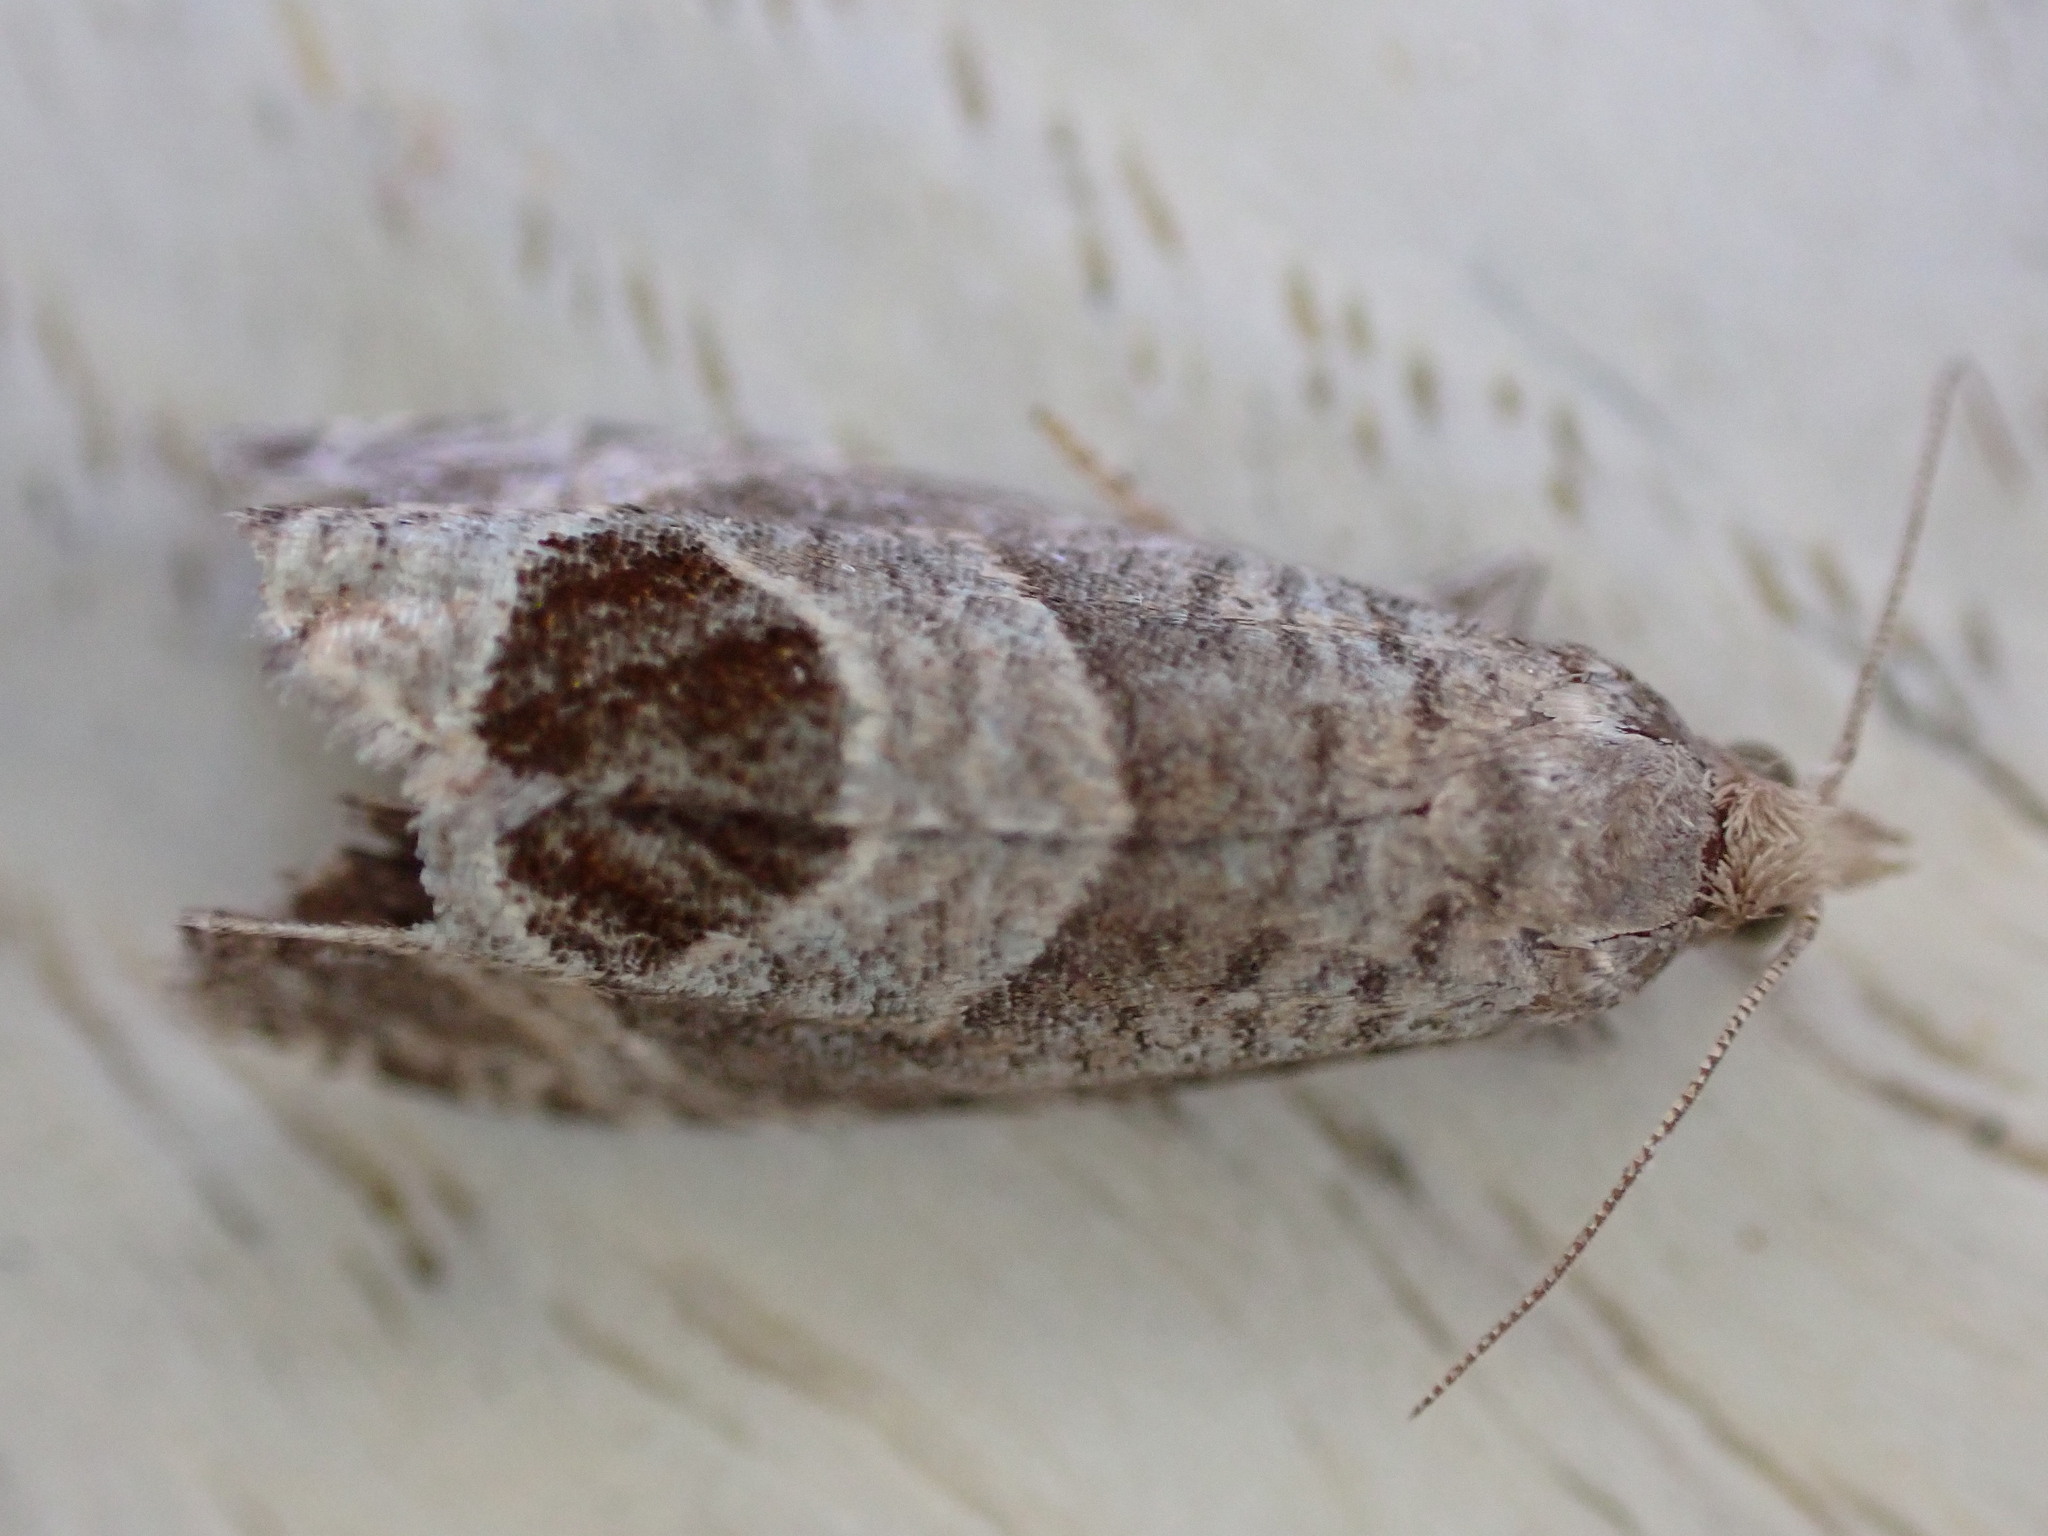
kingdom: Animalia
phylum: Arthropoda
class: Insecta
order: Lepidoptera
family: Tortricidae
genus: Notocelia
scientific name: Notocelia uddmanniana
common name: Bramble shoot moth
